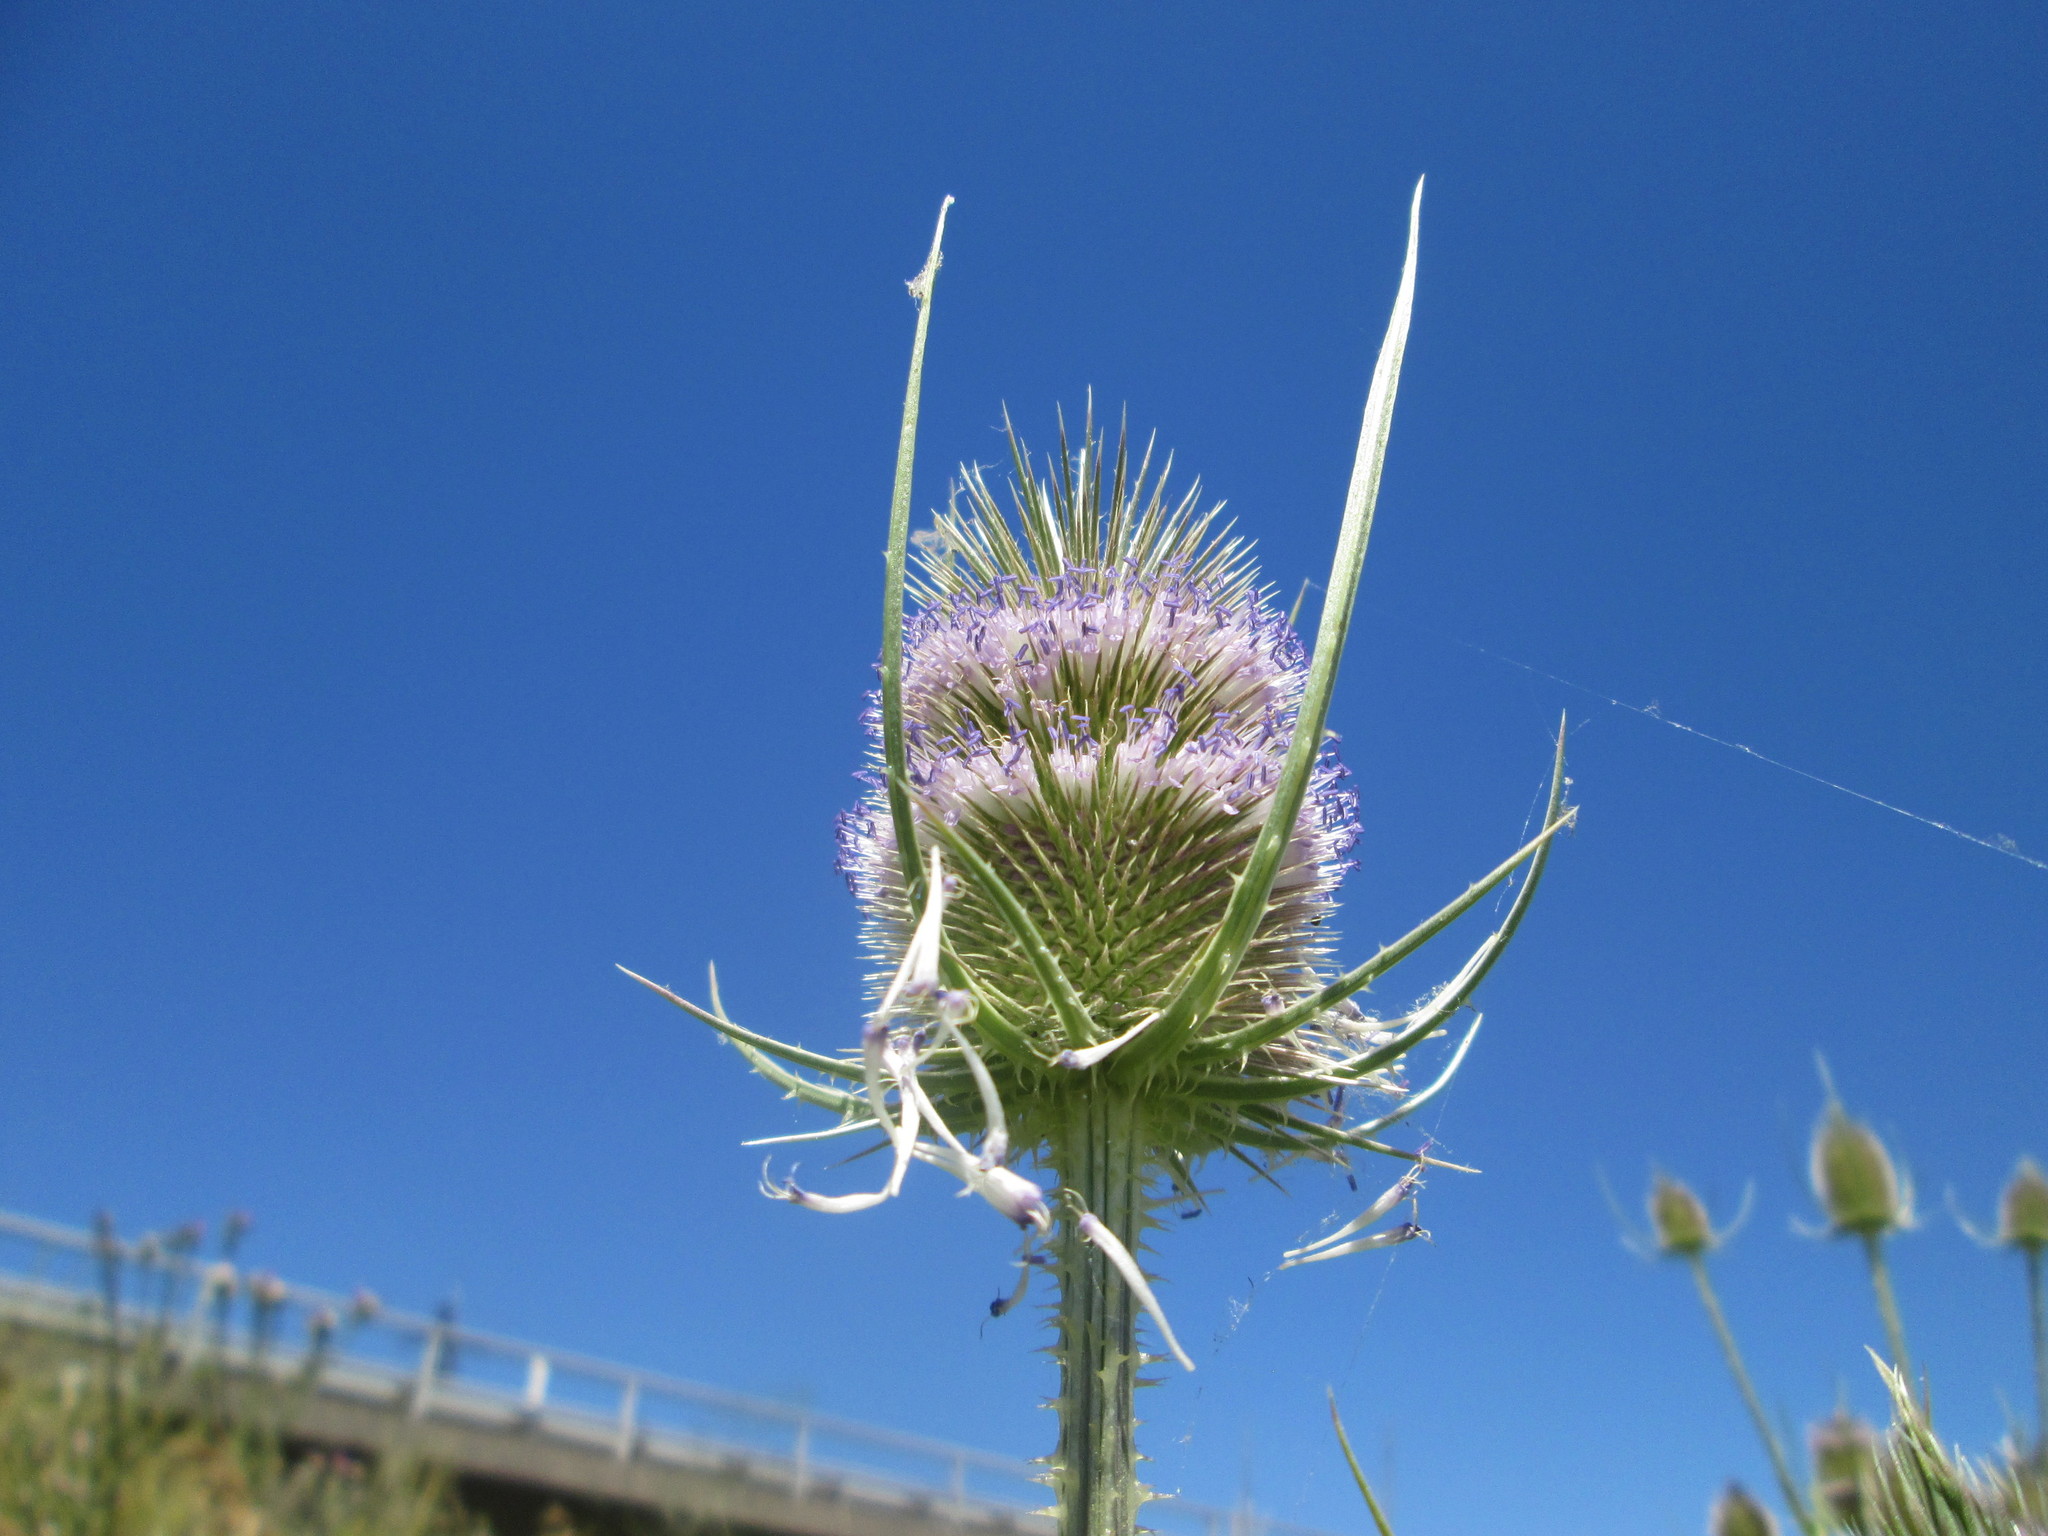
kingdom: Plantae
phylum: Tracheophyta
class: Magnoliopsida
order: Dipsacales
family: Caprifoliaceae
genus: Dipsacus
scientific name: Dipsacus fullonum
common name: Teasel
